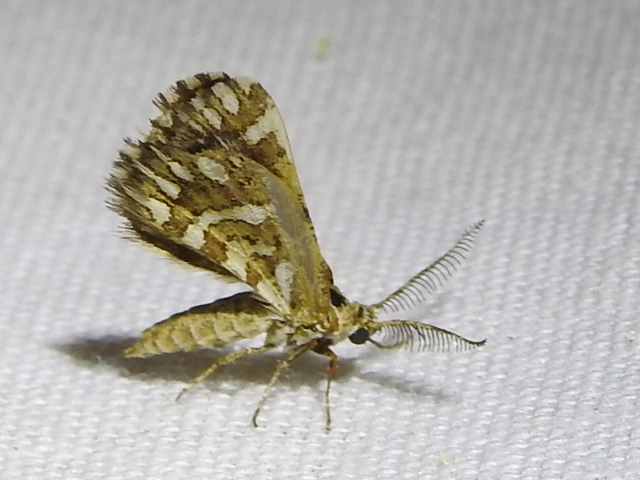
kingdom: Animalia
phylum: Arthropoda
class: Insecta
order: Lepidoptera
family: Geometridae
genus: Narraga
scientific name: Narraga fimetaria
